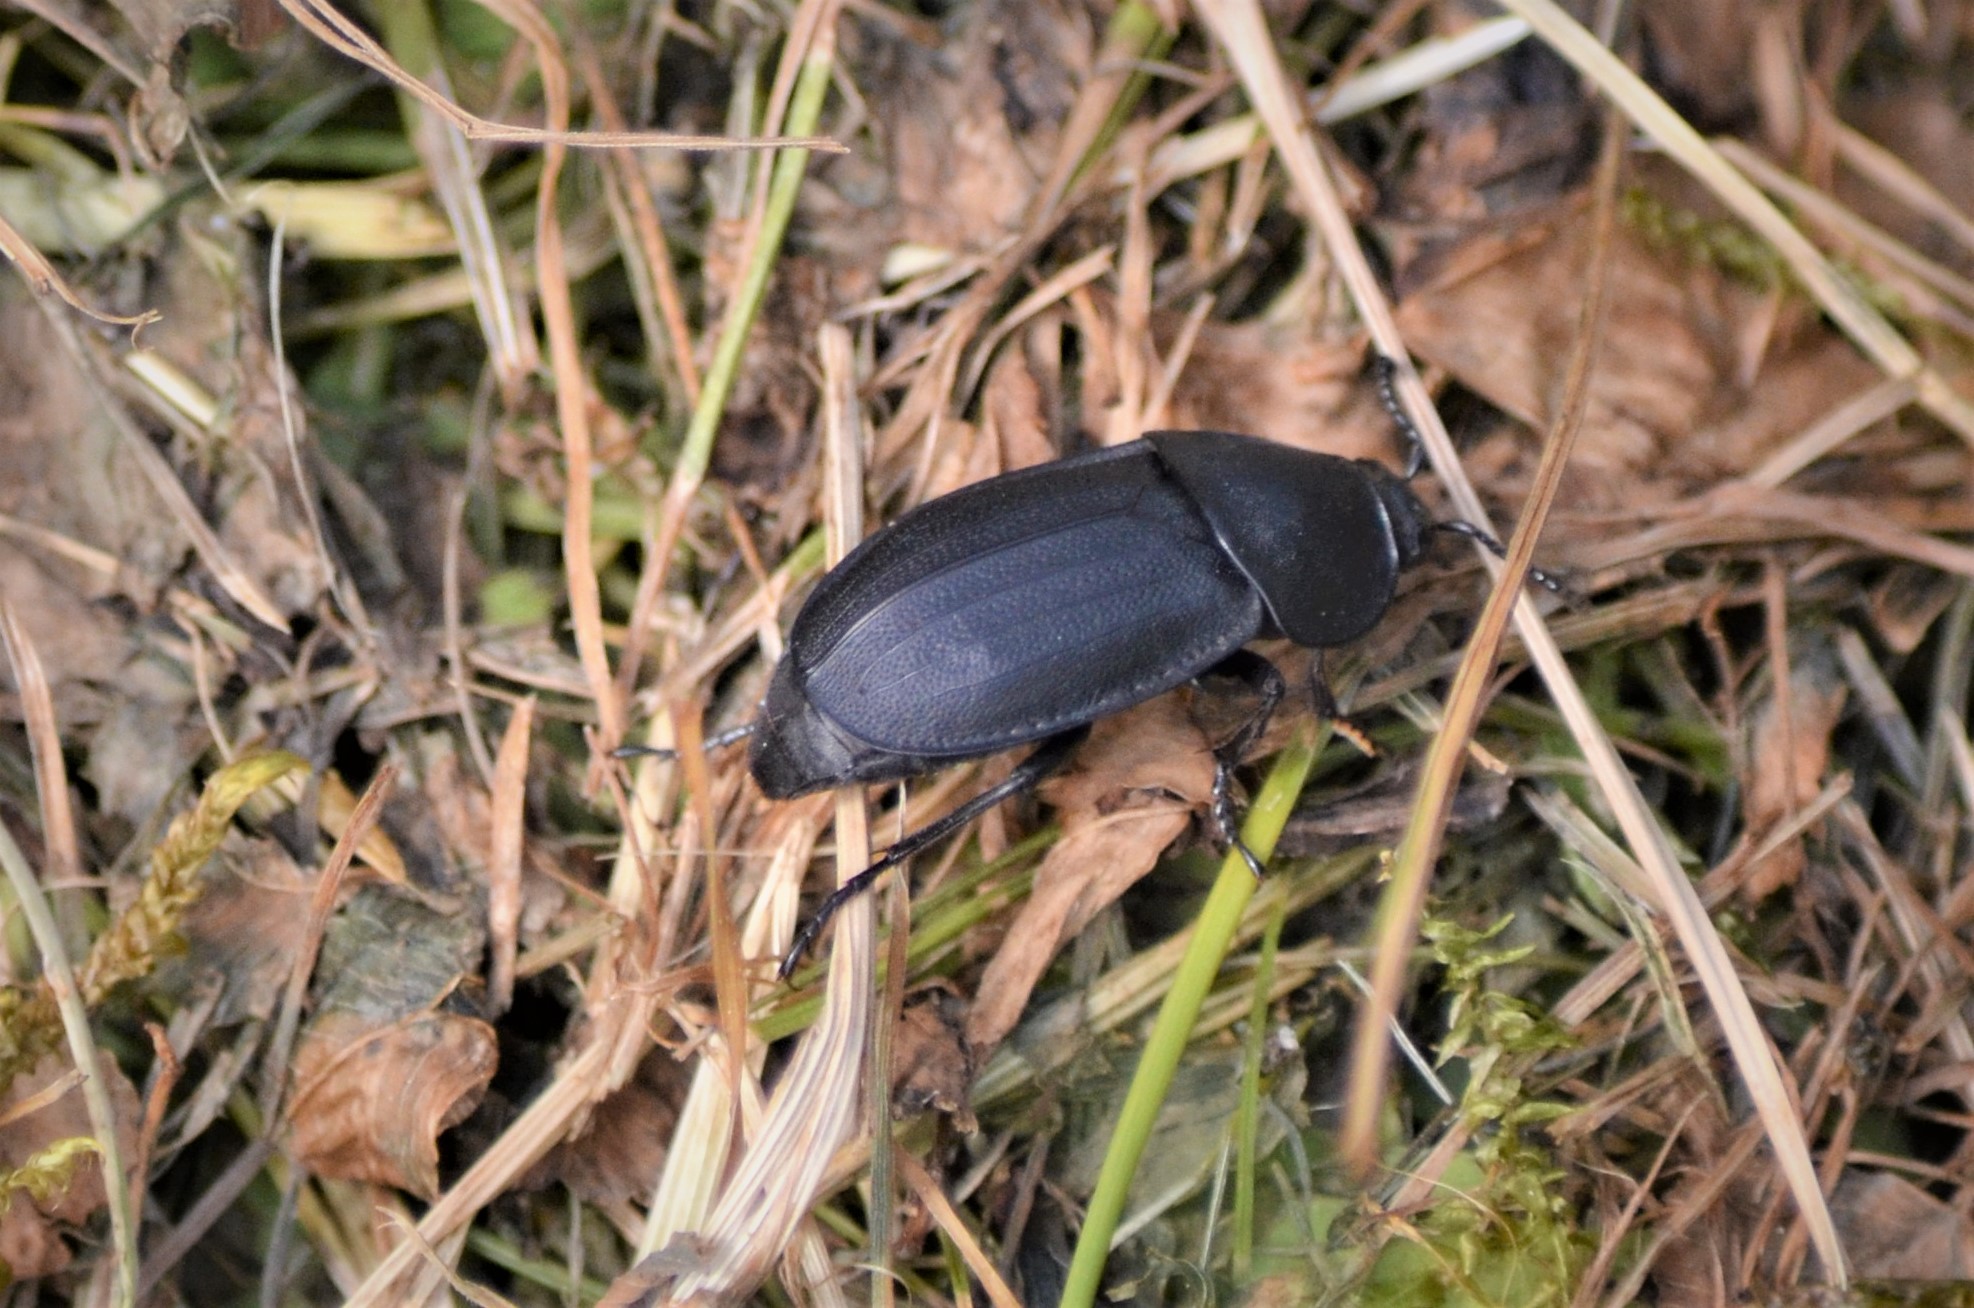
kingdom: Animalia
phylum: Arthropoda
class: Insecta
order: Coleoptera
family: Staphylinidae
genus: Silpha
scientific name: Silpha obscura
